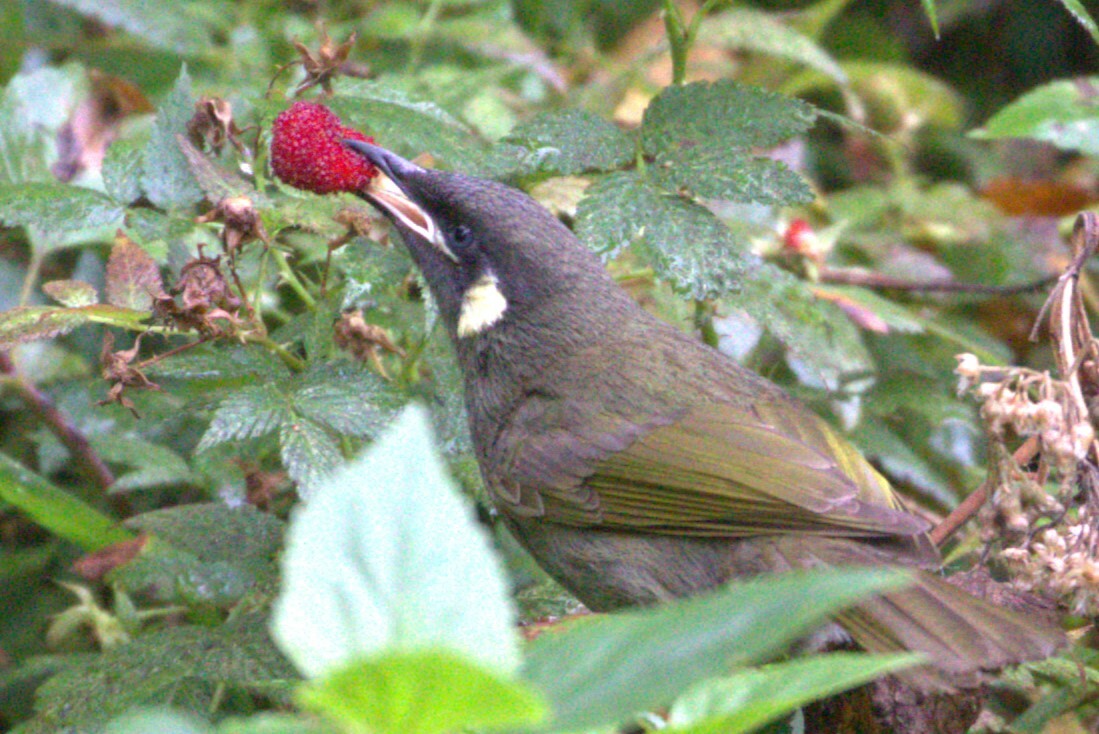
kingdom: Animalia
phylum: Chordata
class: Aves
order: Passeriformes
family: Meliphagidae
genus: Meliphaga
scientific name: Meliphaga lewinii
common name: Lewin's honeyeater
